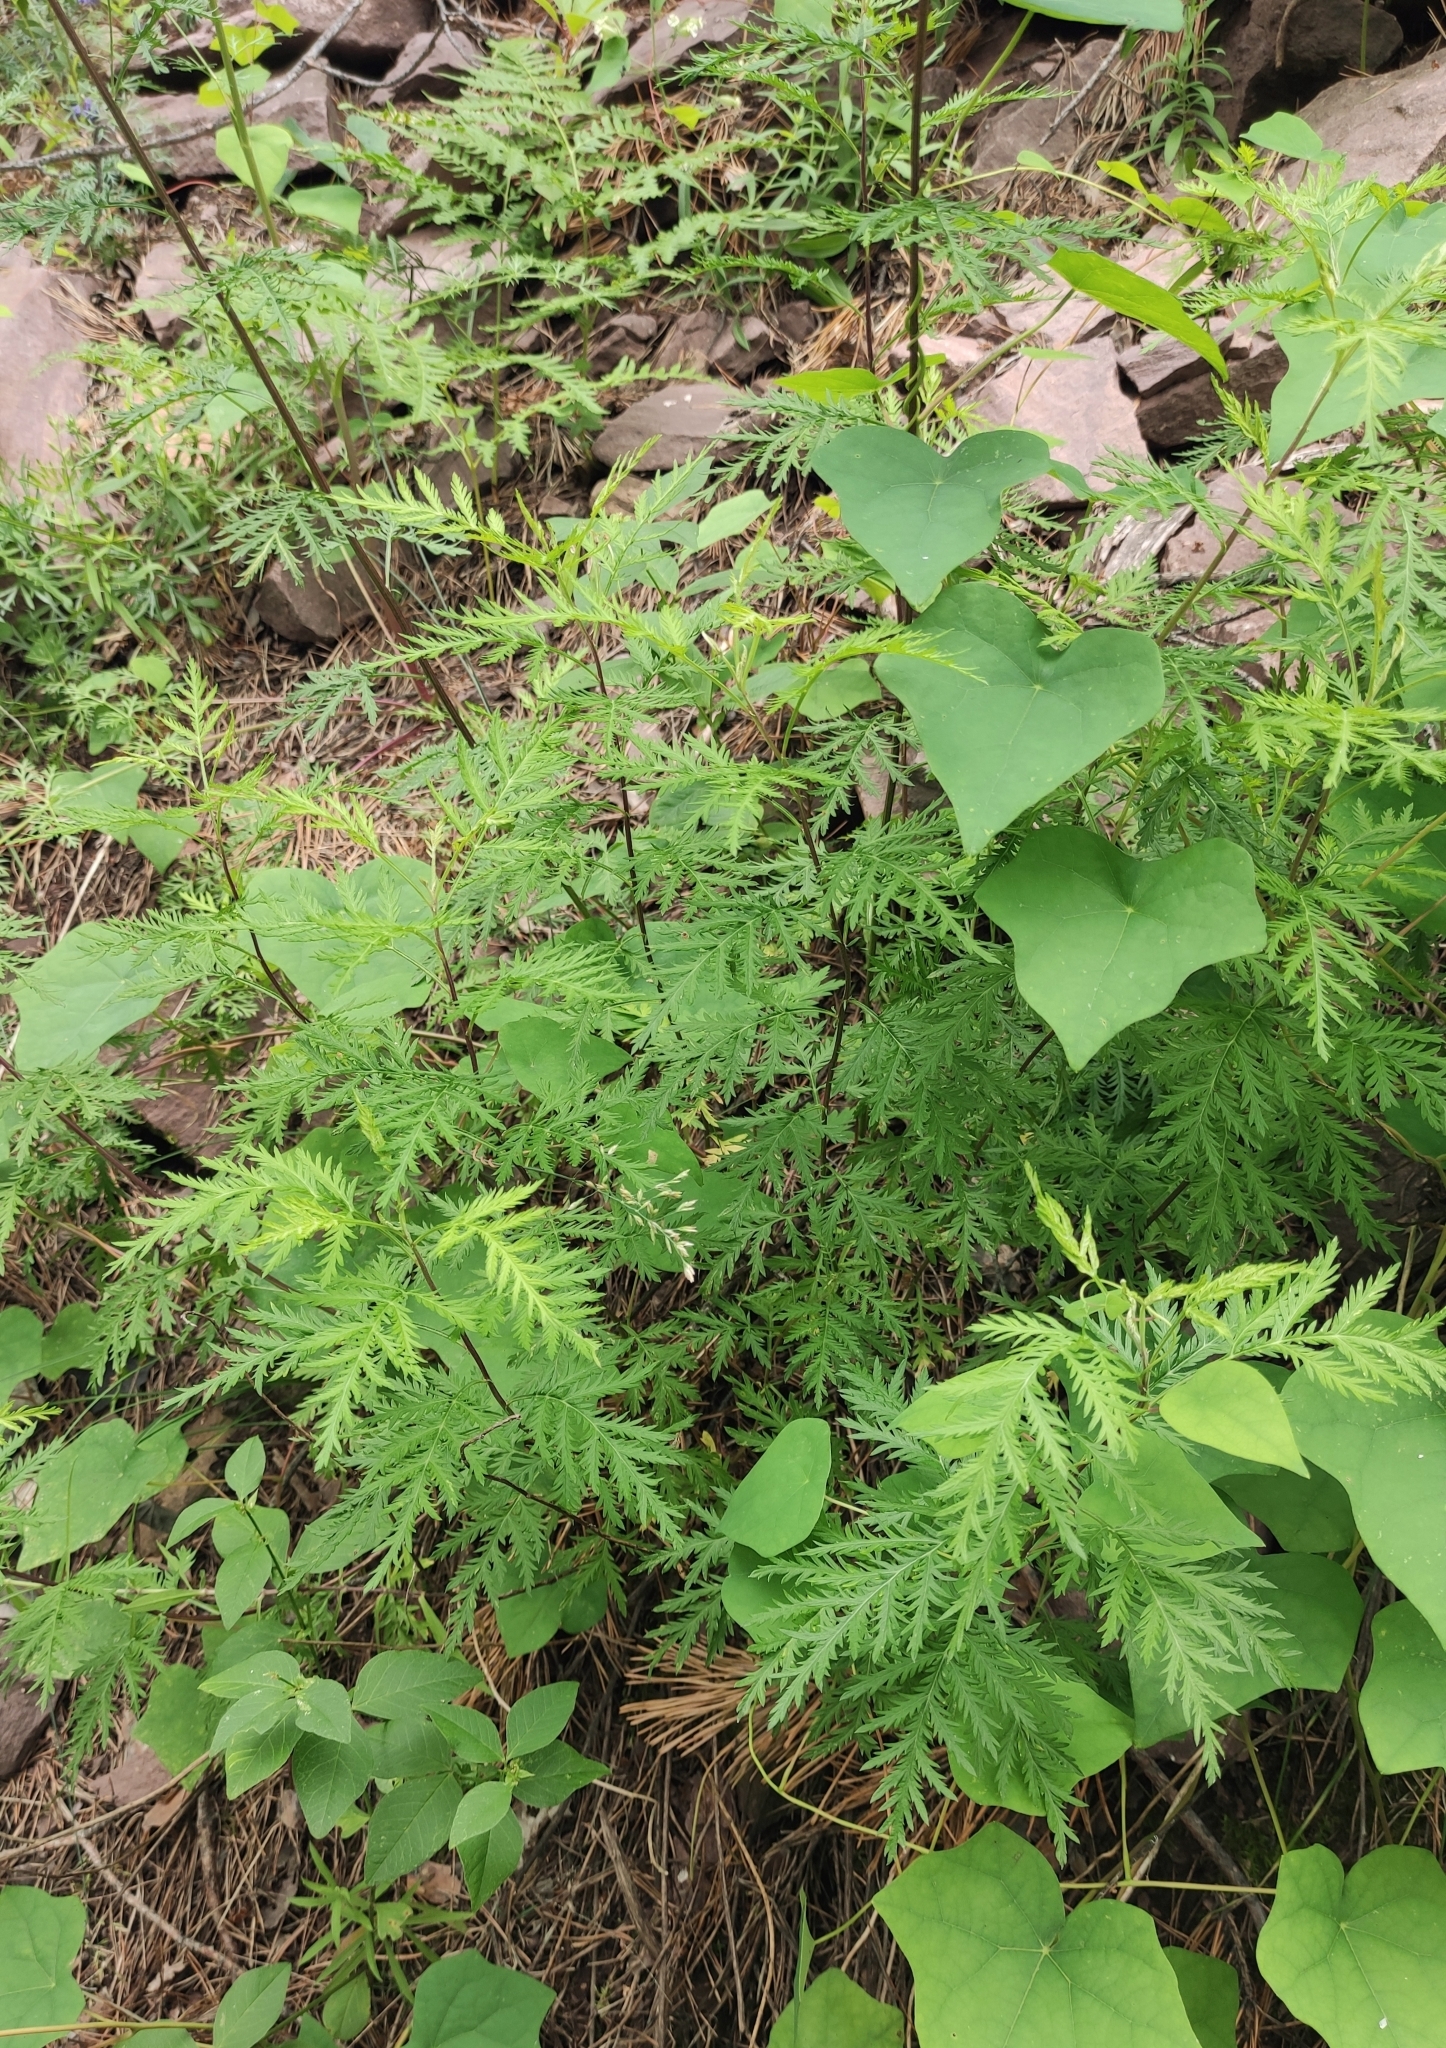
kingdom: Plantae
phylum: Tracheophyta
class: Magnoliopsida
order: Asterales
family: Asteraceae
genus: Artemisia
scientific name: Artemisia gmelinii
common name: Gmelin's wormwood
